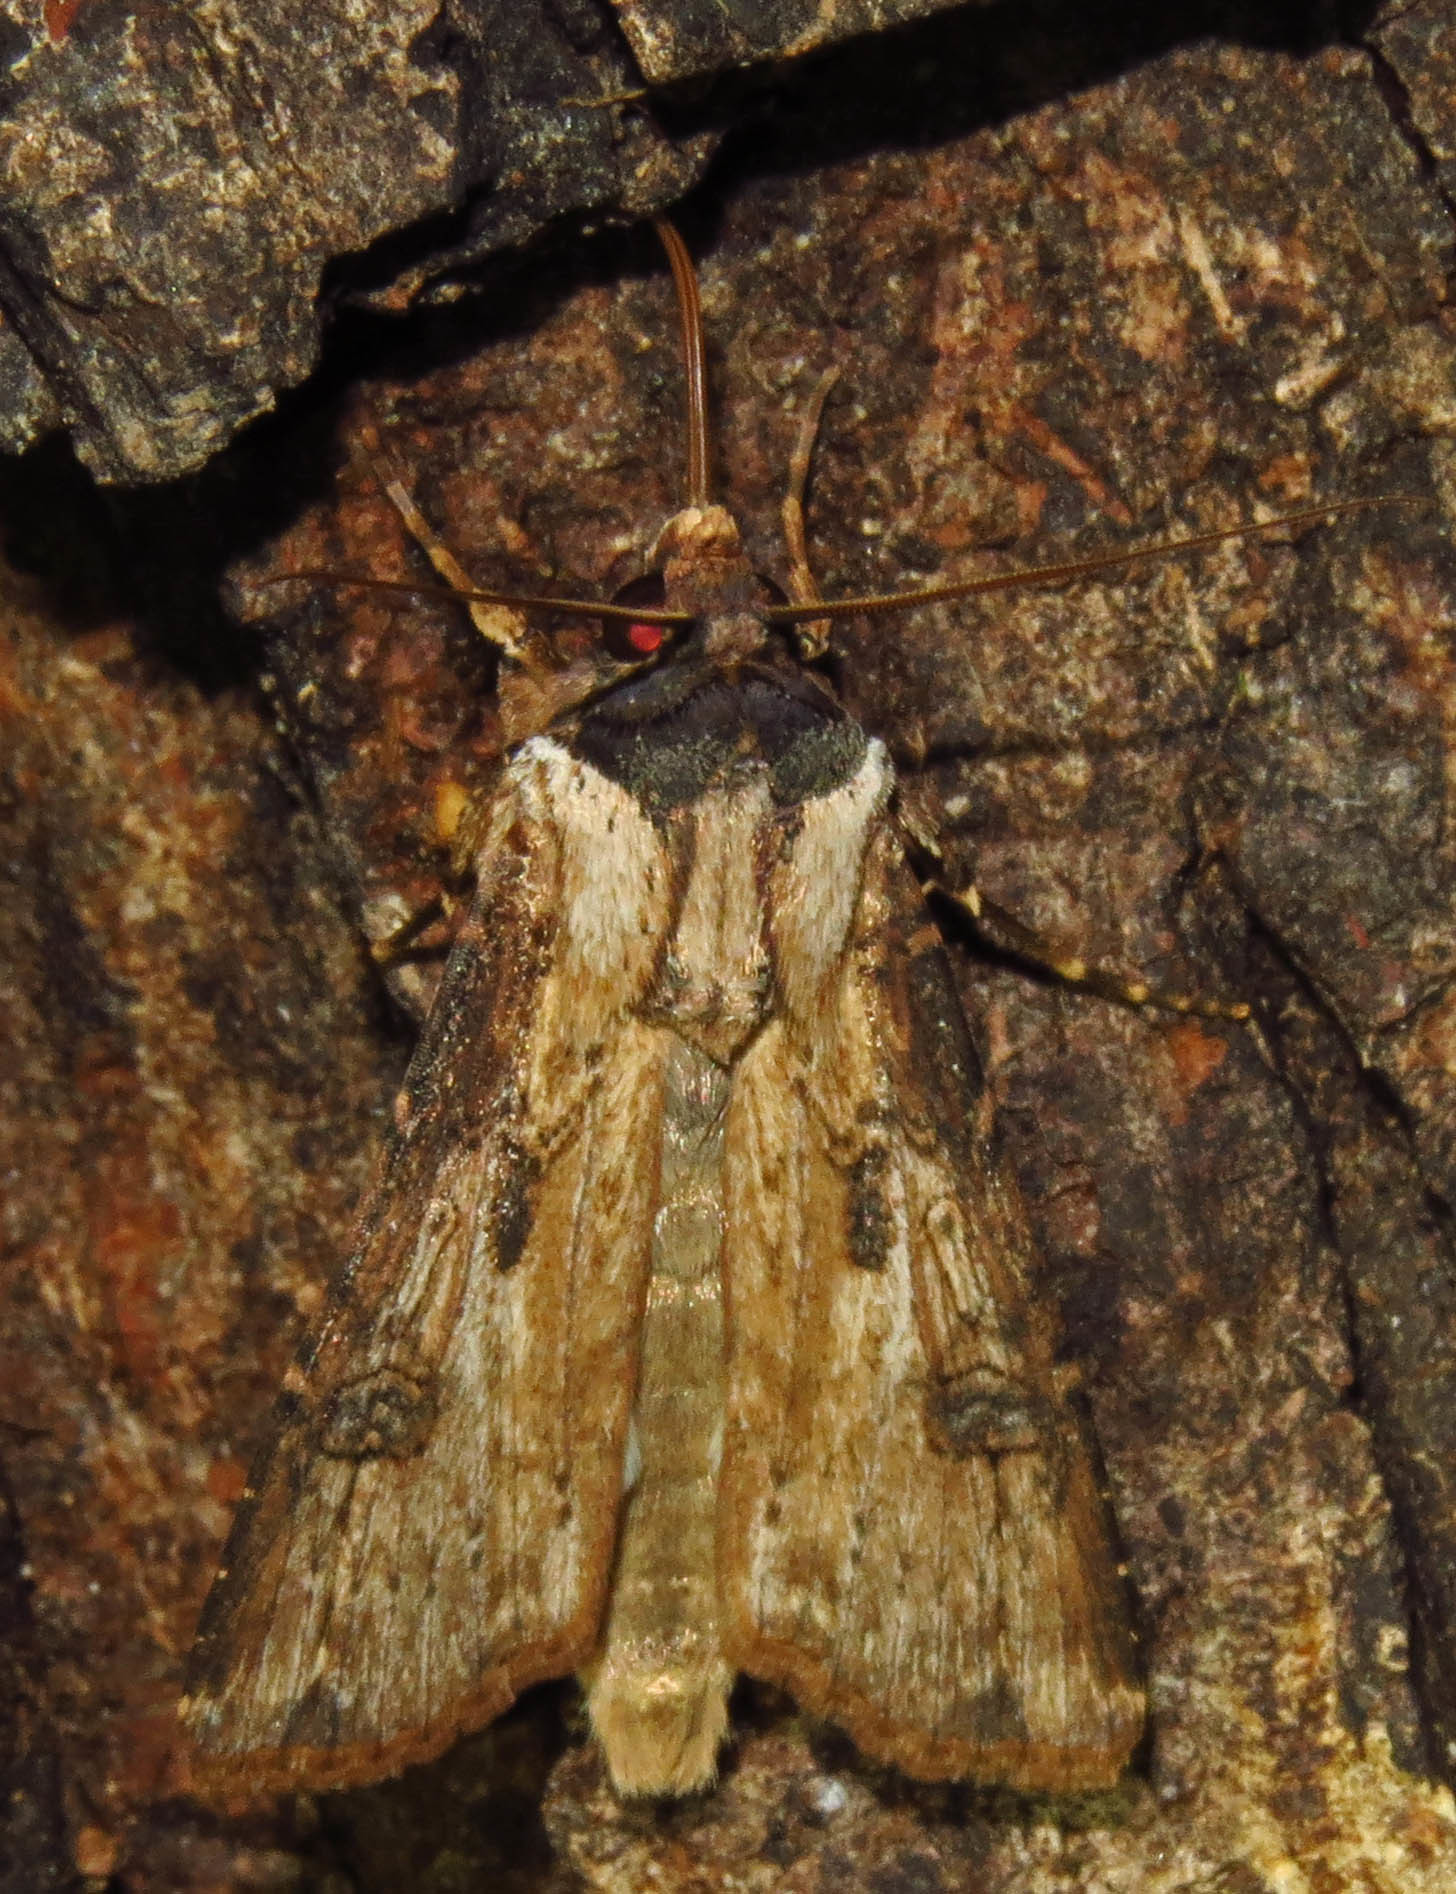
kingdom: Animalia
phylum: Arthropoda
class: Insecta
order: Lepidoptera
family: Noctuidae
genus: Agrotis
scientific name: Agrotis malefida
